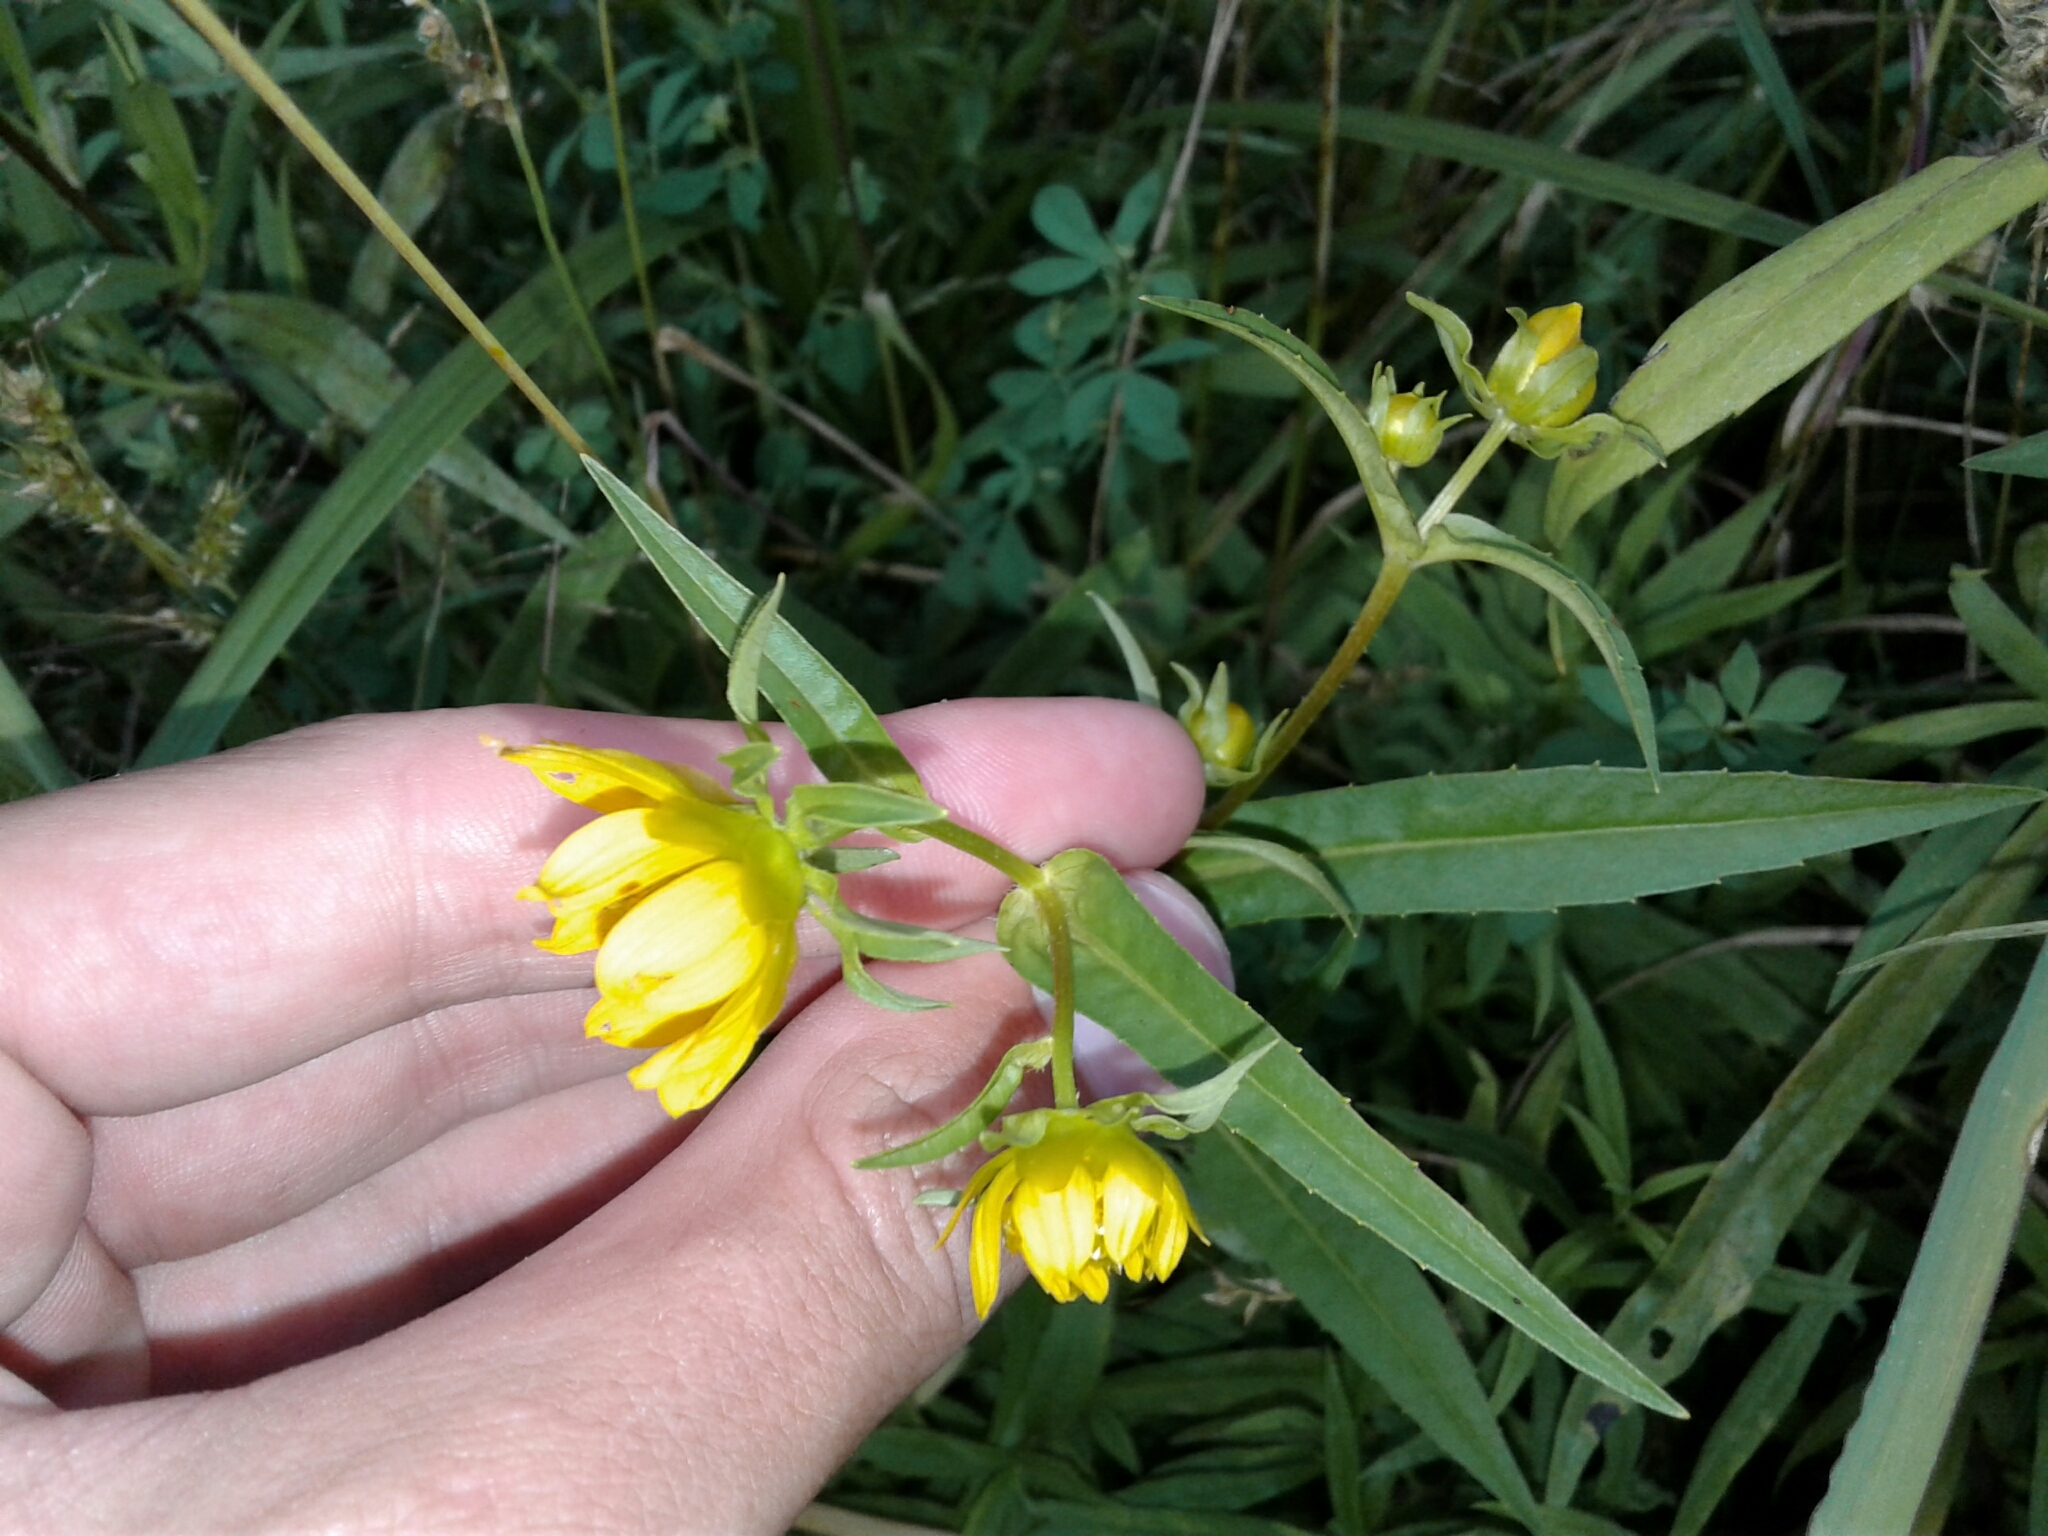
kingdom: Plantae
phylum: Tracheophyta
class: Magnoliopsida
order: Asterales
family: Asteraceae
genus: Bidens
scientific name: Bidens cernua
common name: Nodding bur-marigold
